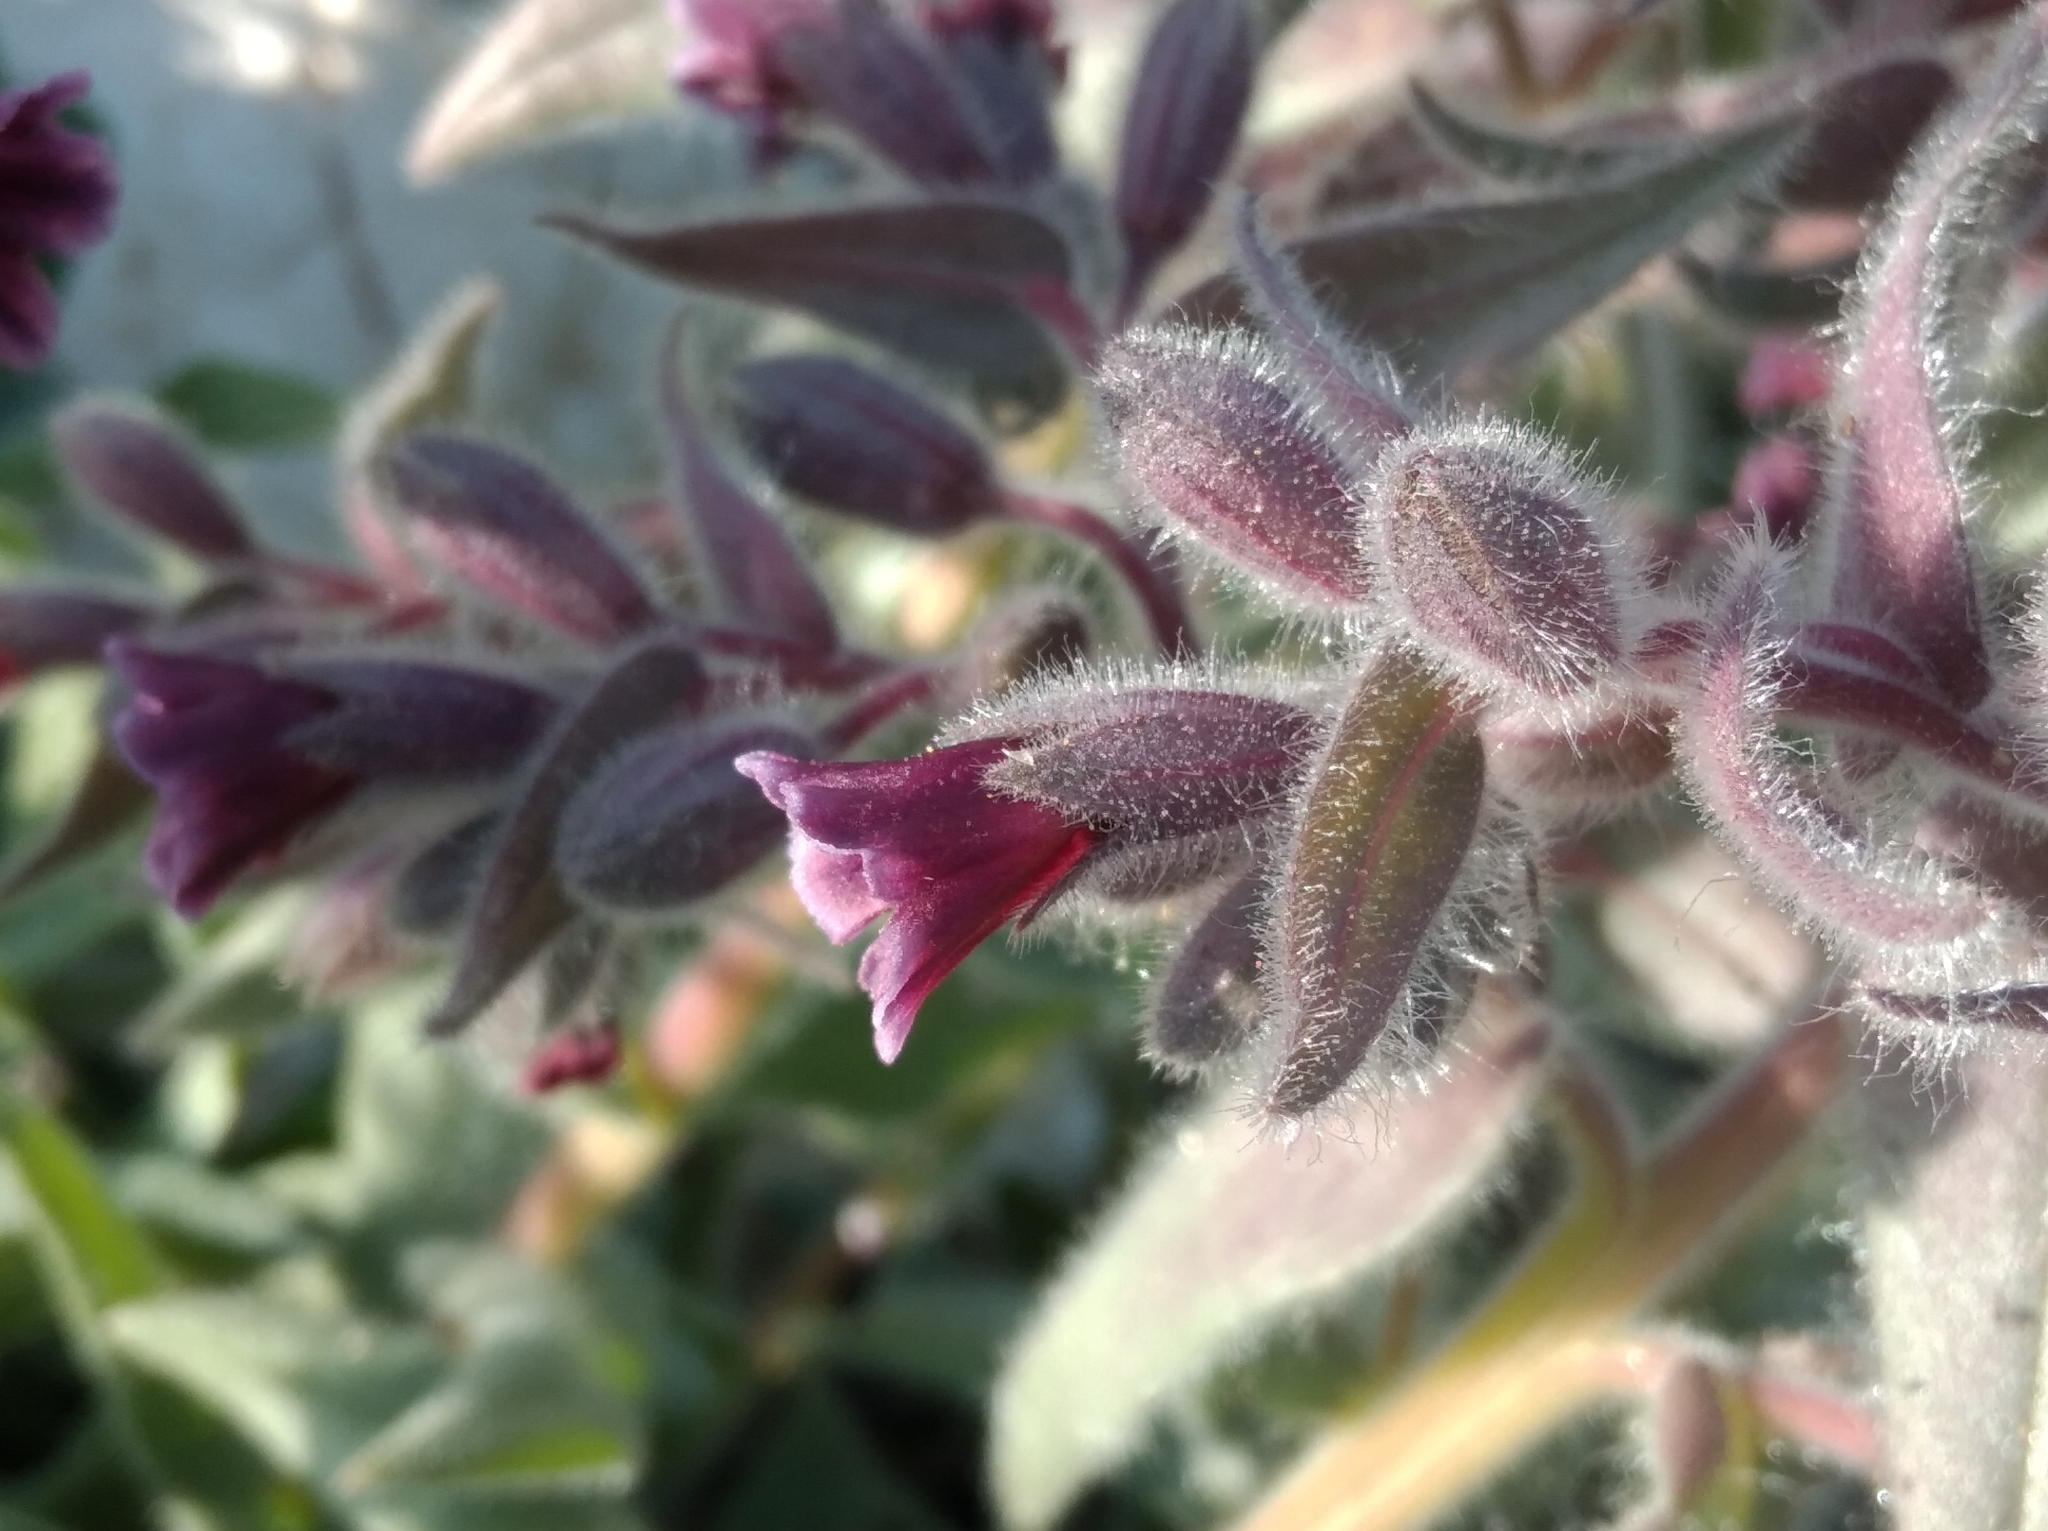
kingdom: Plantae
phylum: Tracheophyta
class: Magnoliopsida
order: Boraginales
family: Boraginaceae
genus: Nonea
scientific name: Nonea pulla
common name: Brown nonea
